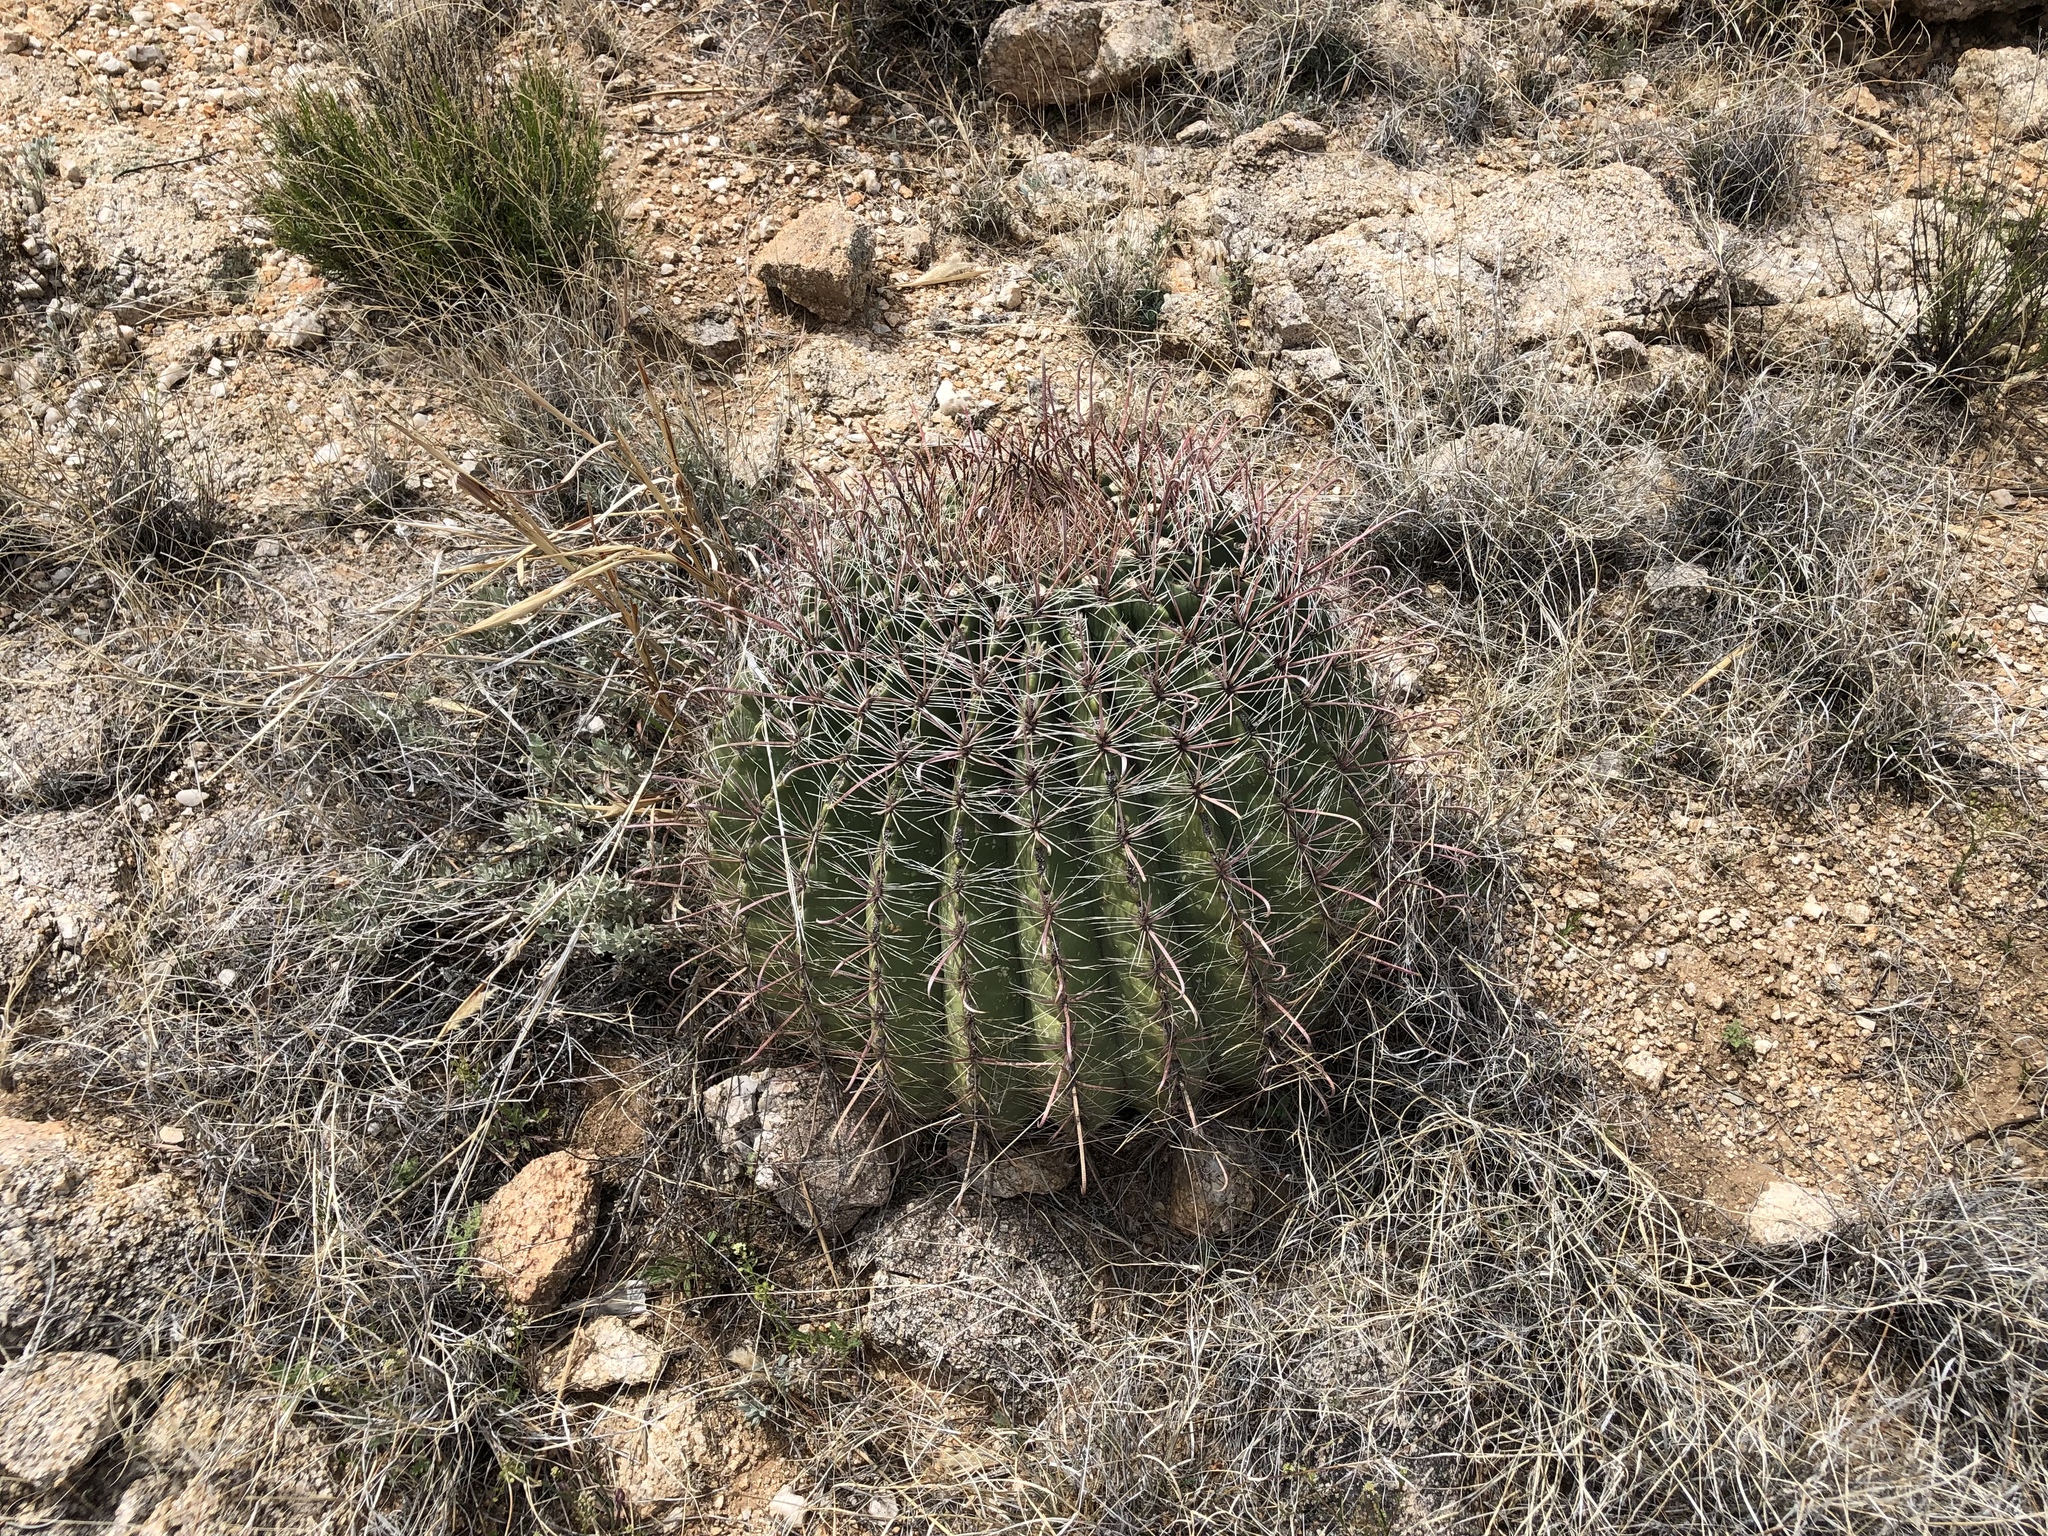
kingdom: Plantae
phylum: Tracheophyta
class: Magnoliopsida
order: Caryophyllales
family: Cactaceae
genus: Ferocactus
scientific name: Ferocactus wislizeni
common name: Candy barrel cactus
